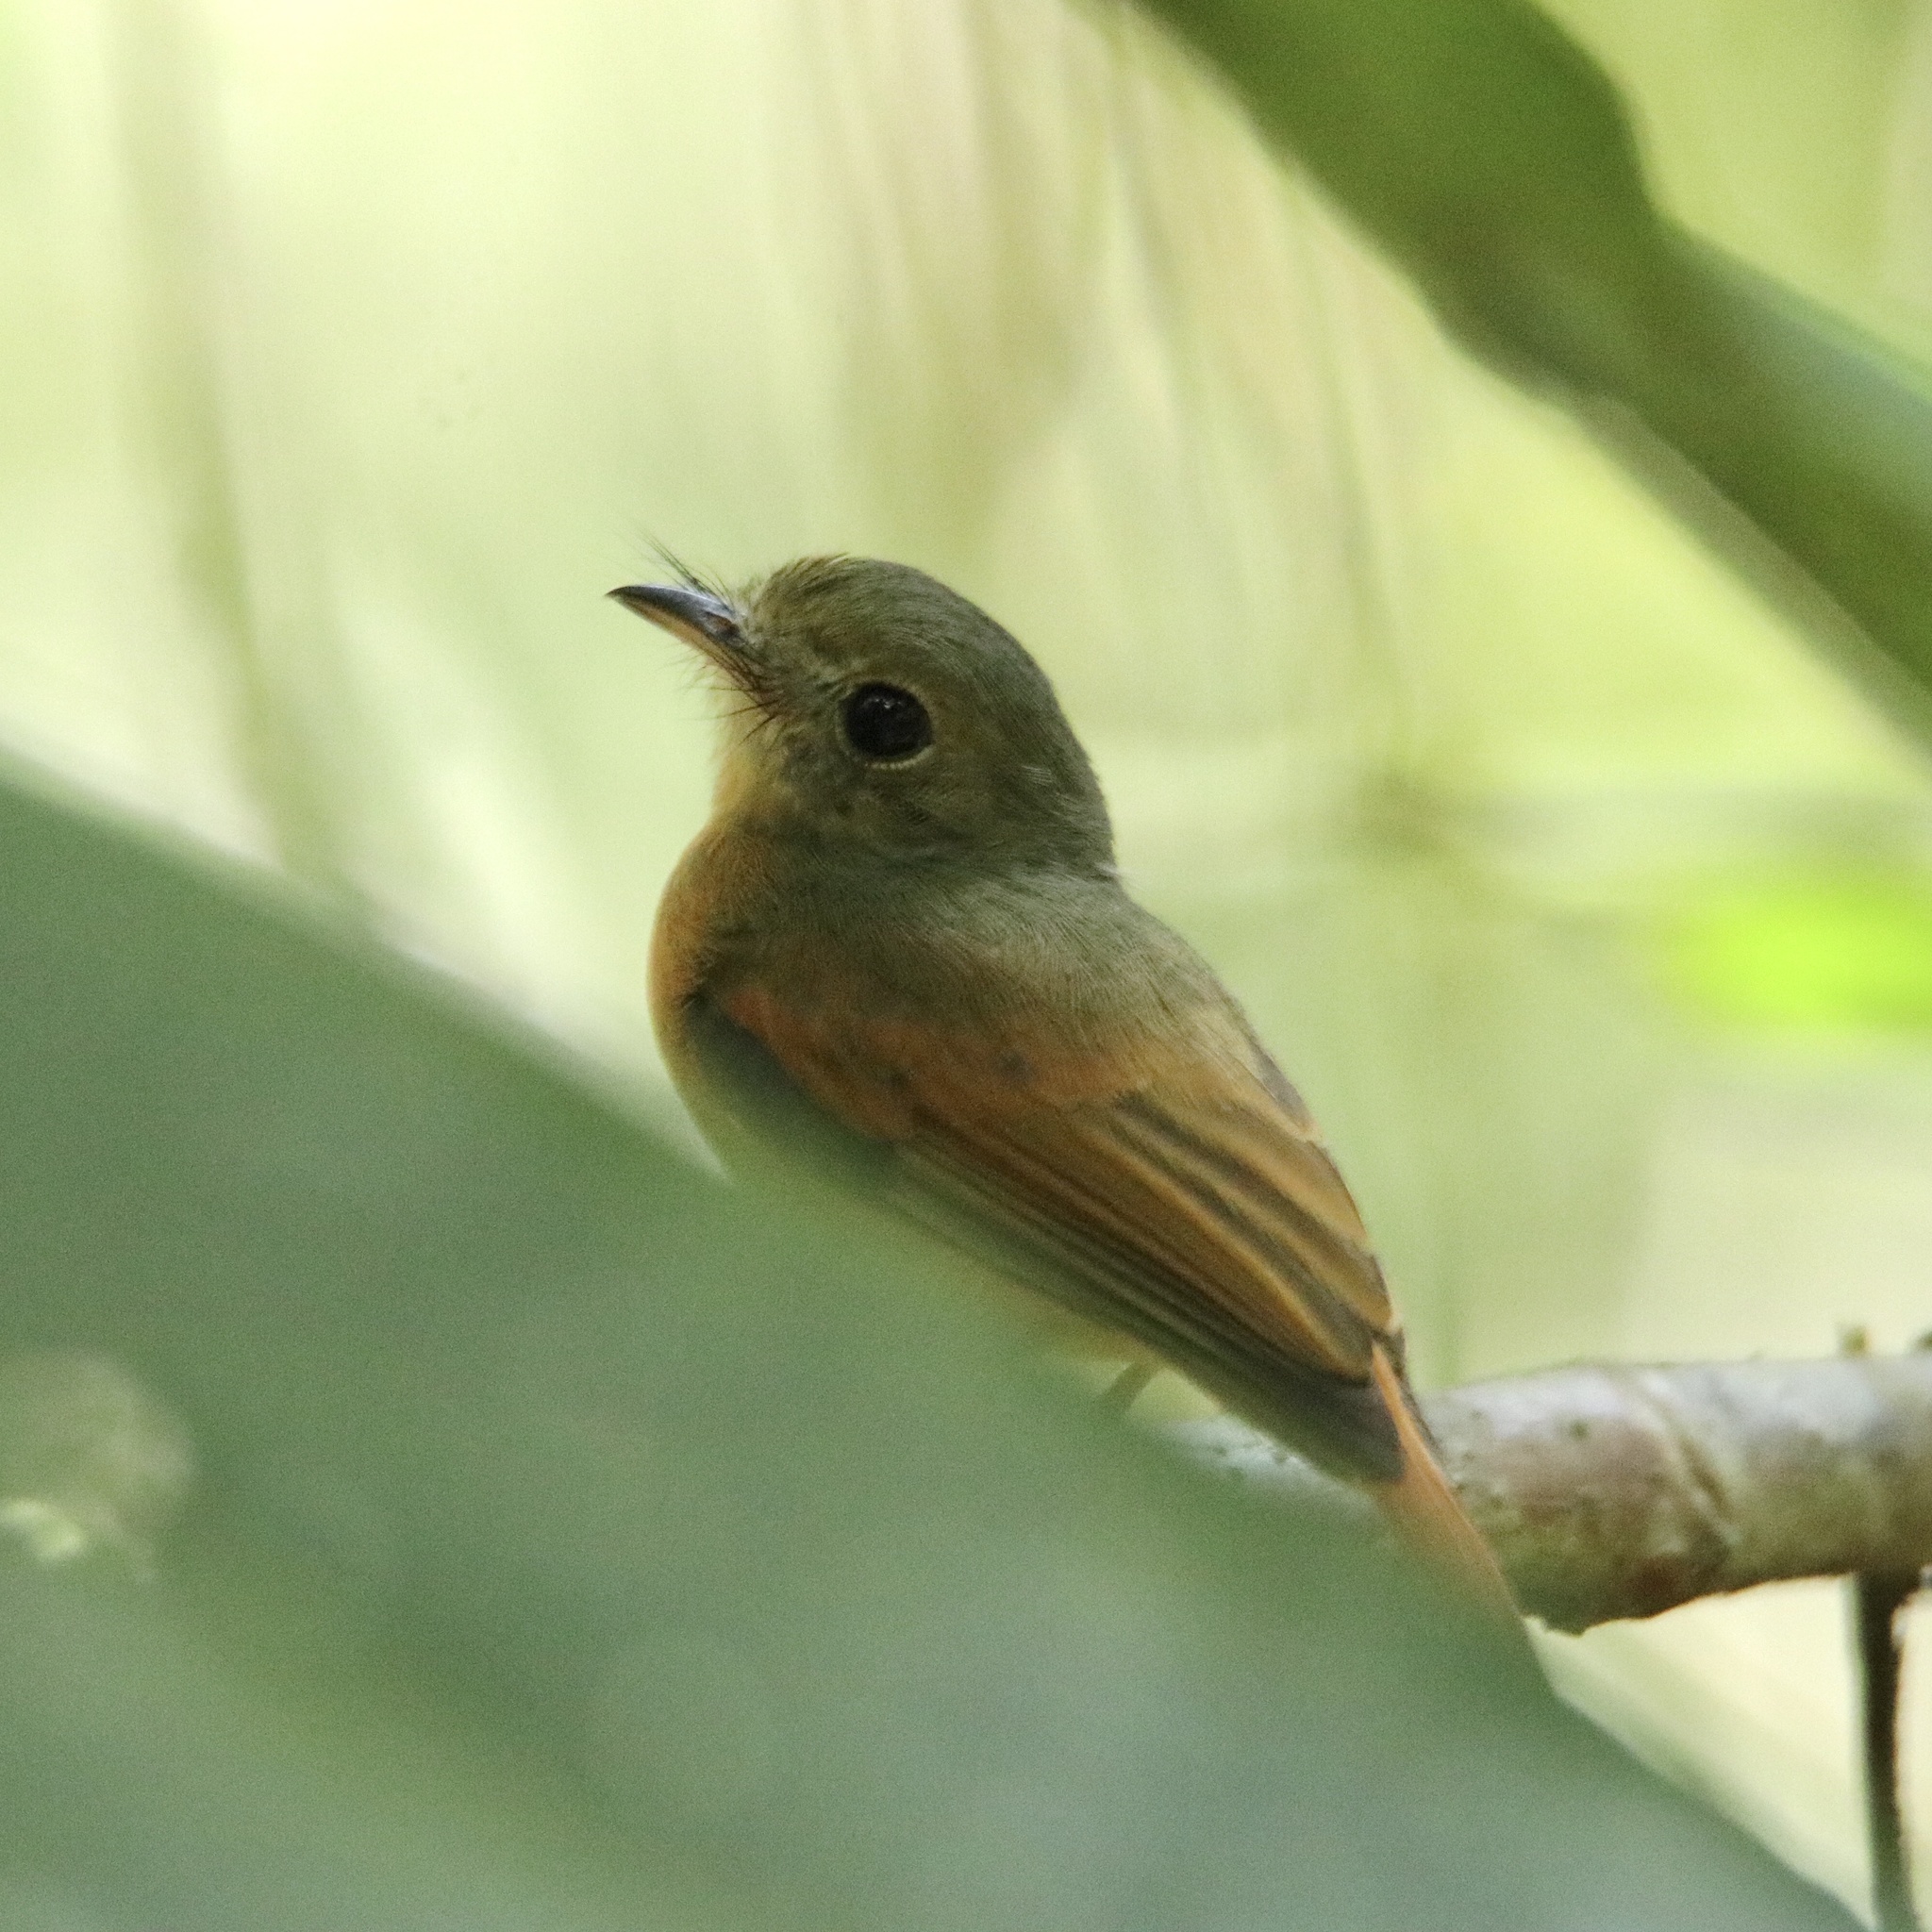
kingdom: Animalia
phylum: Chordata
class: Aves
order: Passeriformes
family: Tyrannidae
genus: Terenotriccus
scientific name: Terenotriccus erythrurus
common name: Ruddy-tailed flycatcher
